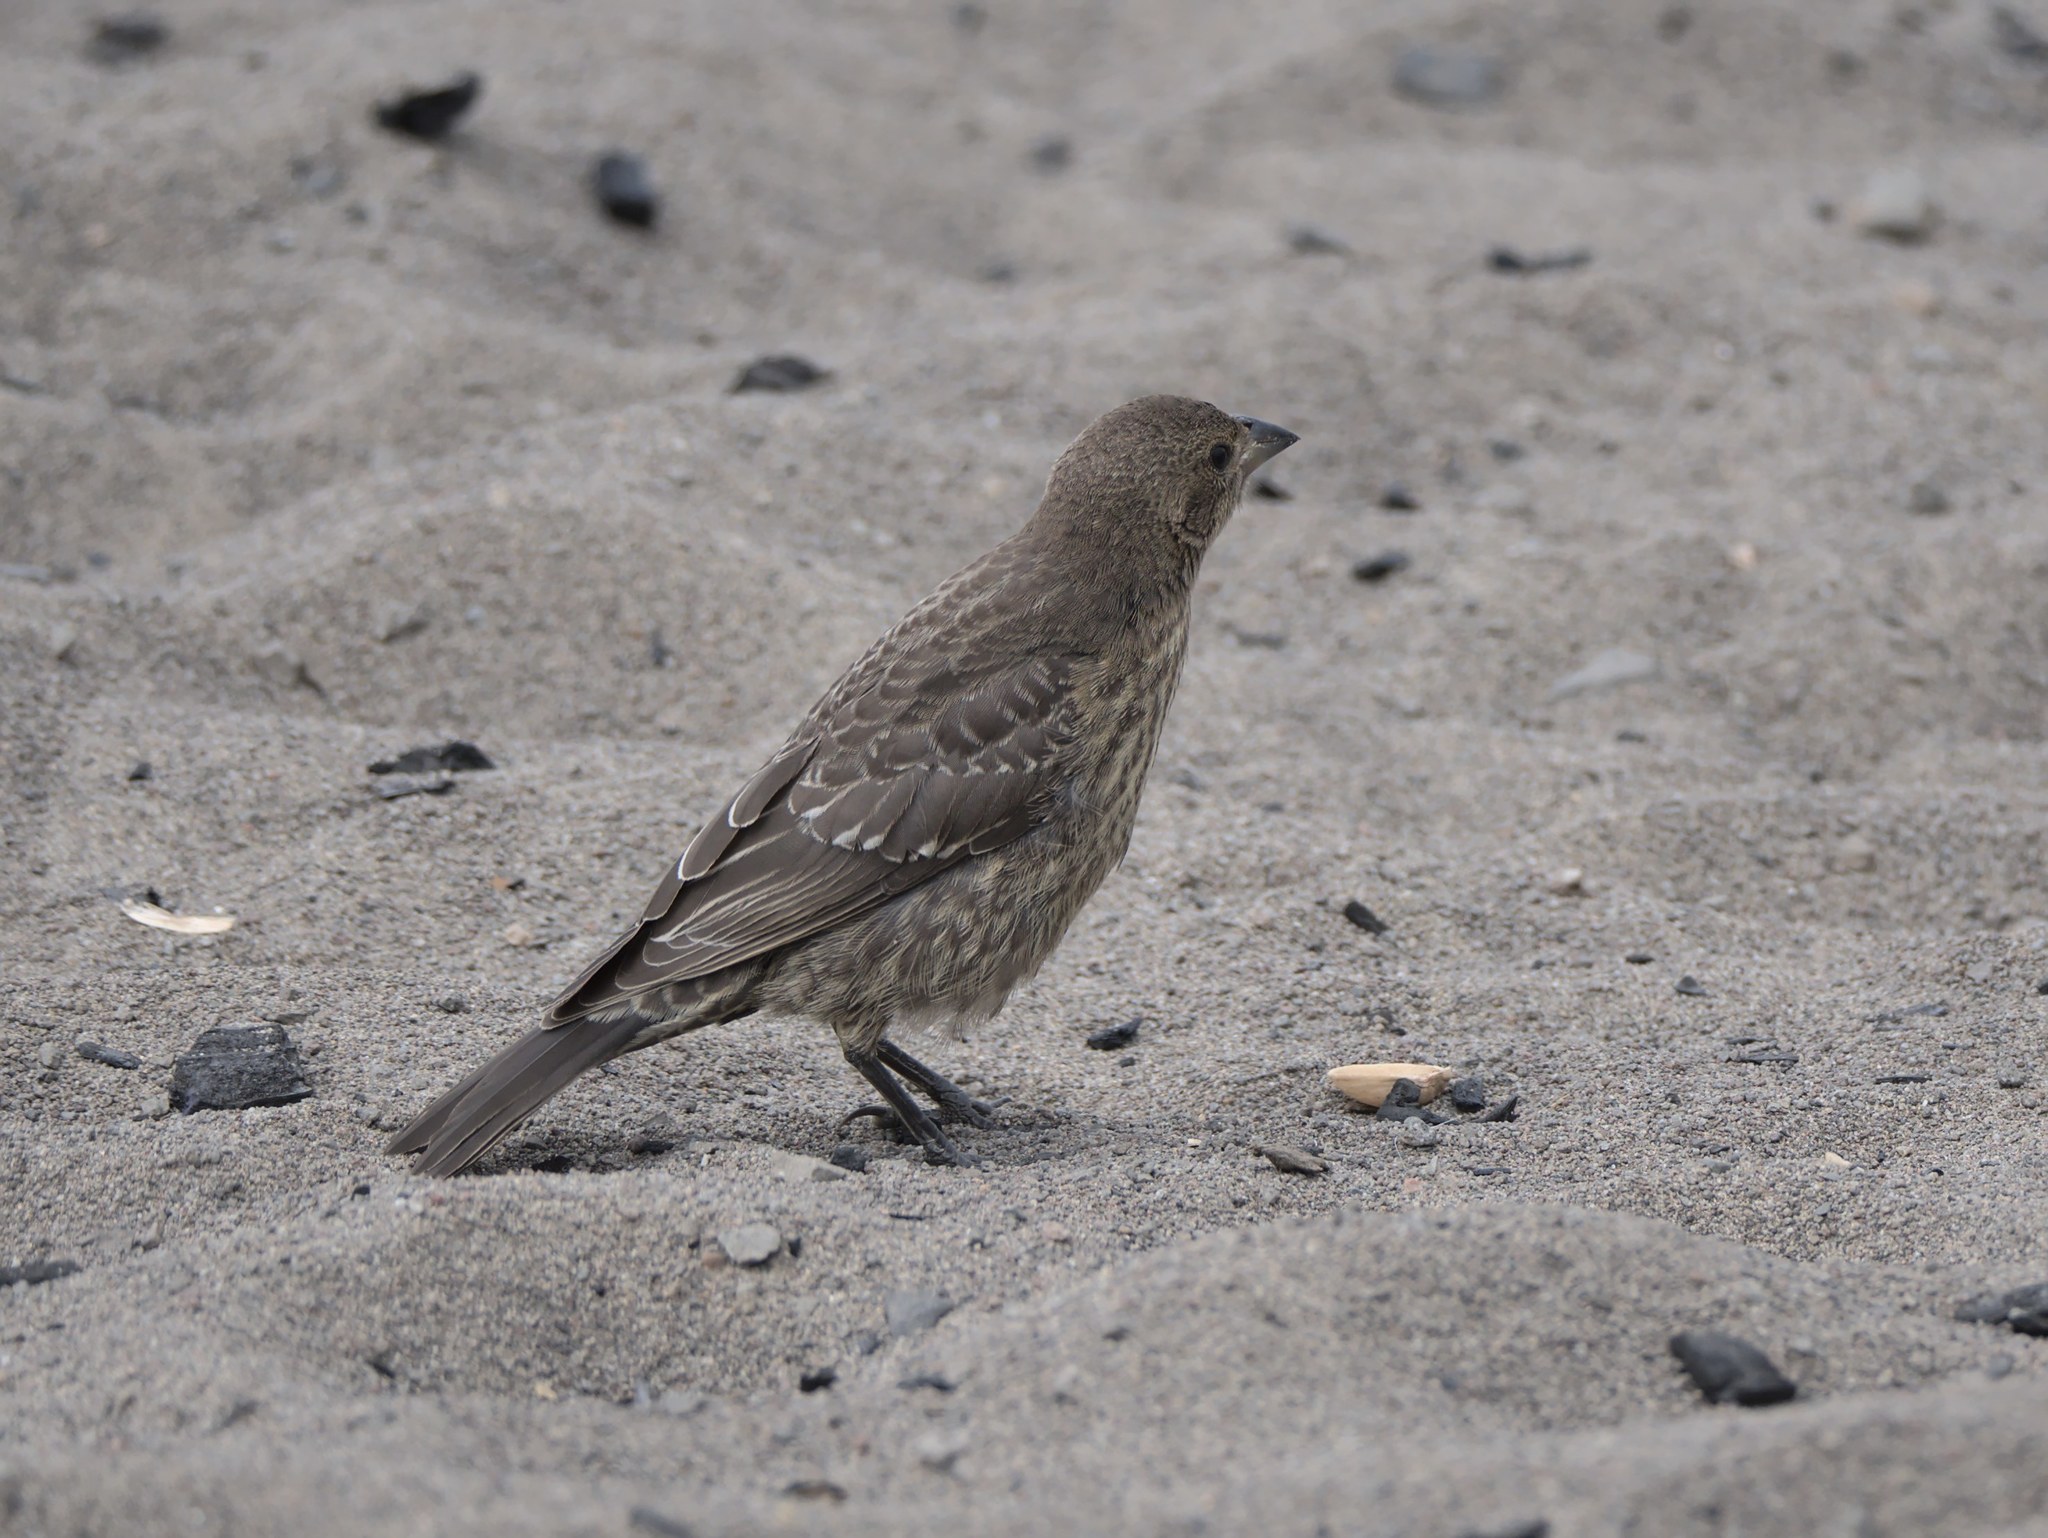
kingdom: Animalia
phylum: Chordata
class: Aves
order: Passeriformes
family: Icteridae
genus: Molothrus
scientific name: Molothrus ater
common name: Brown-headed cowbird
